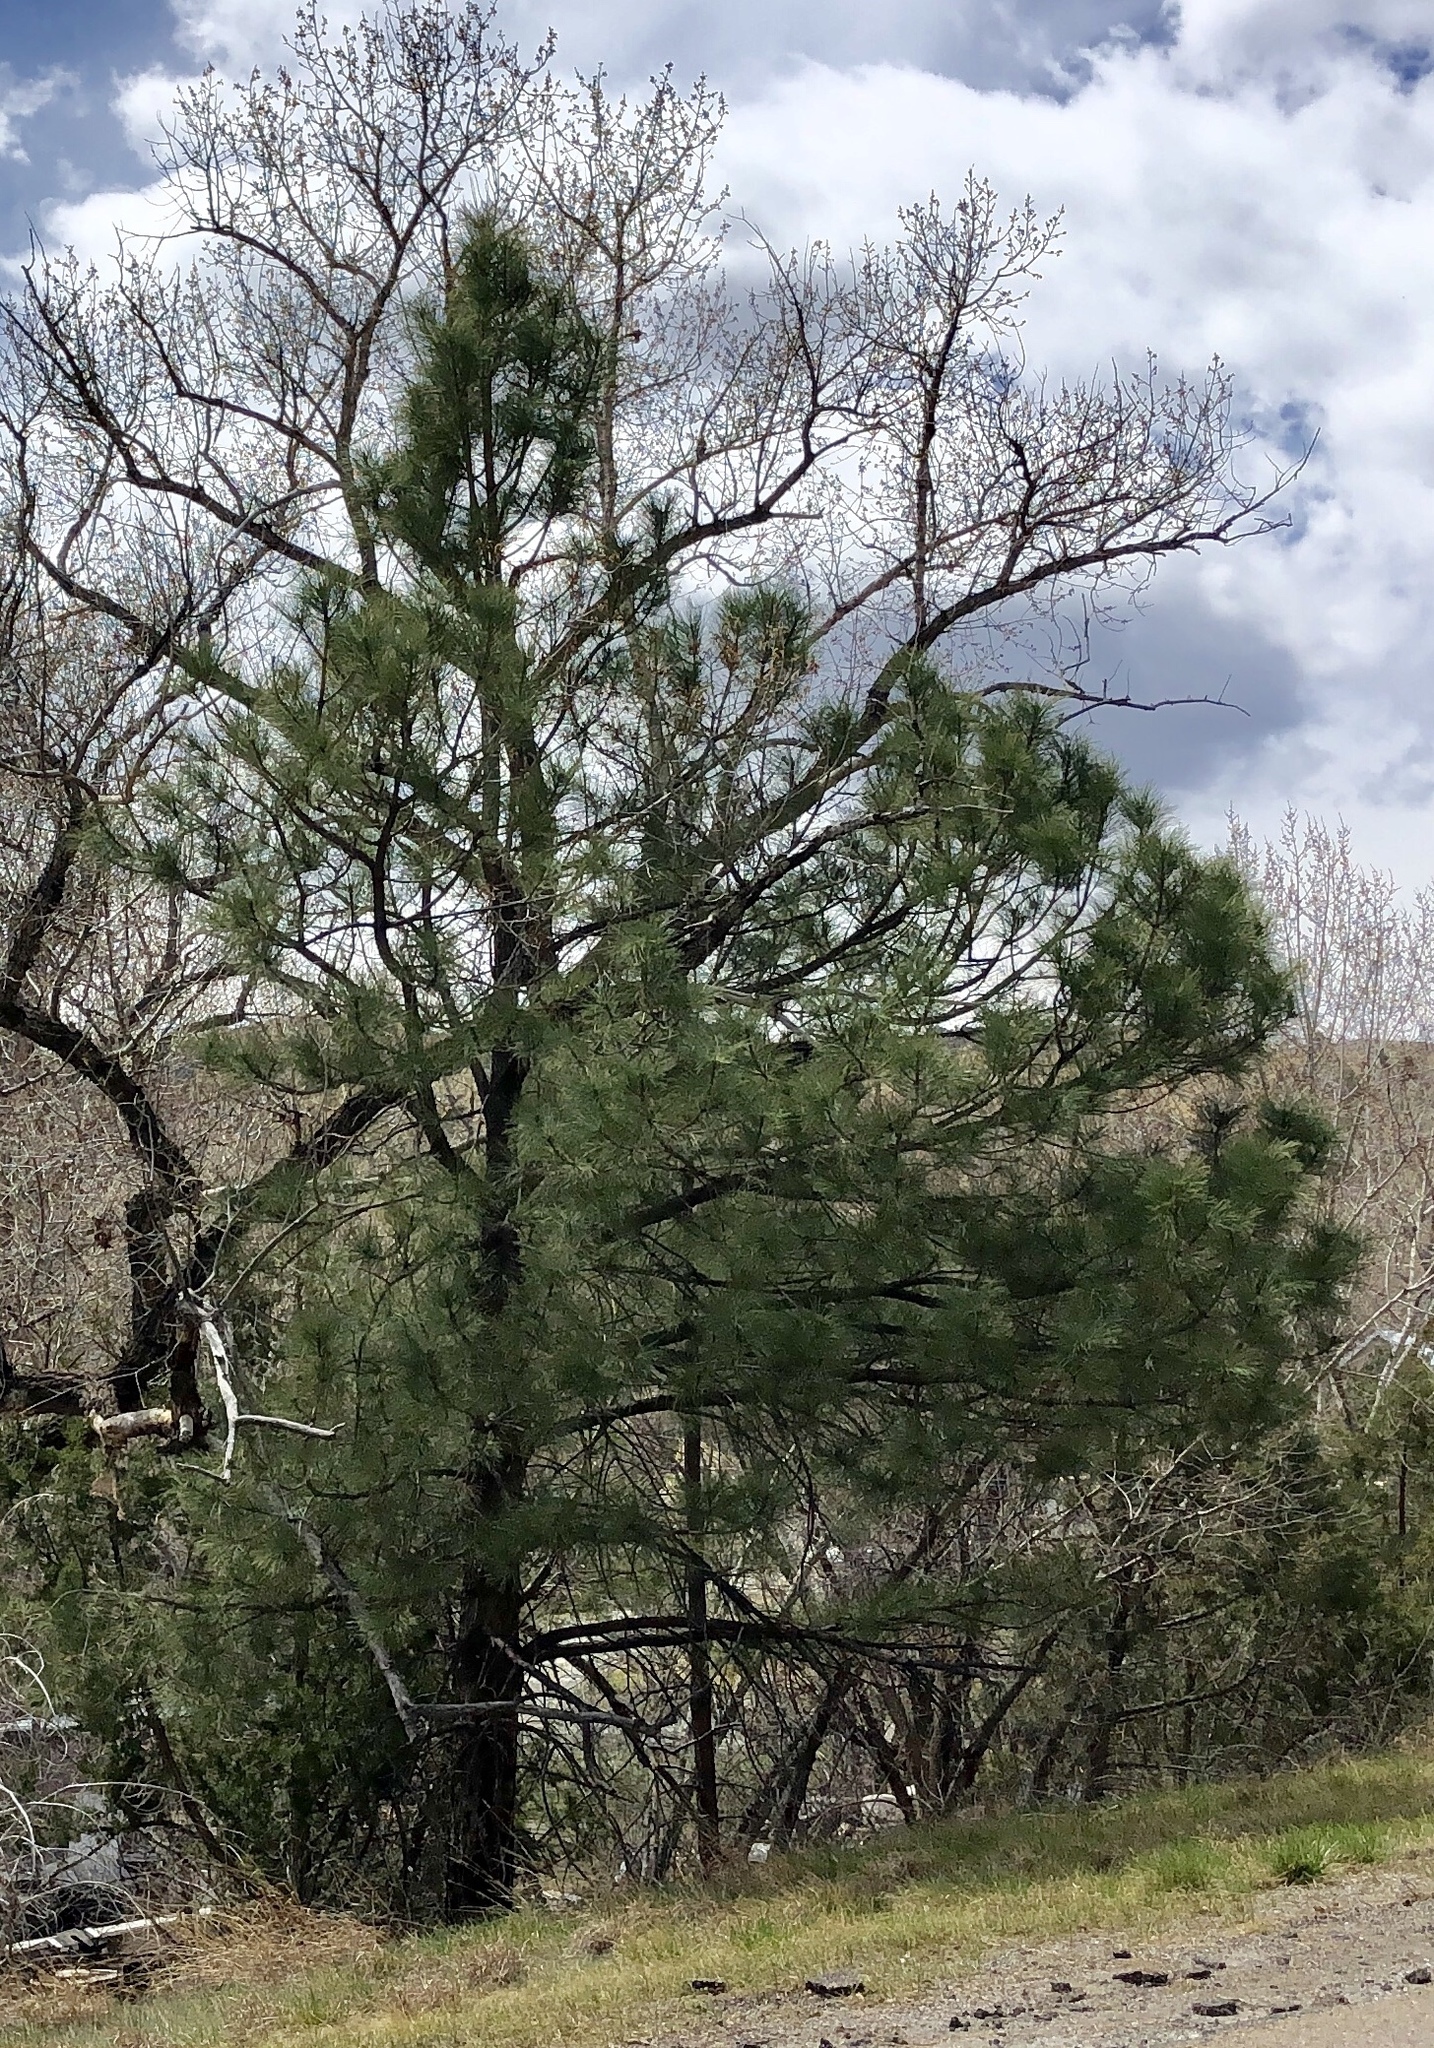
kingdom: Plantae
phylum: Tracheophyta
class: Pinopsida
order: Pinales
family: Pinaceae
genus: Pinus
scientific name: Pinus ponderosa
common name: Western yellow-pine
